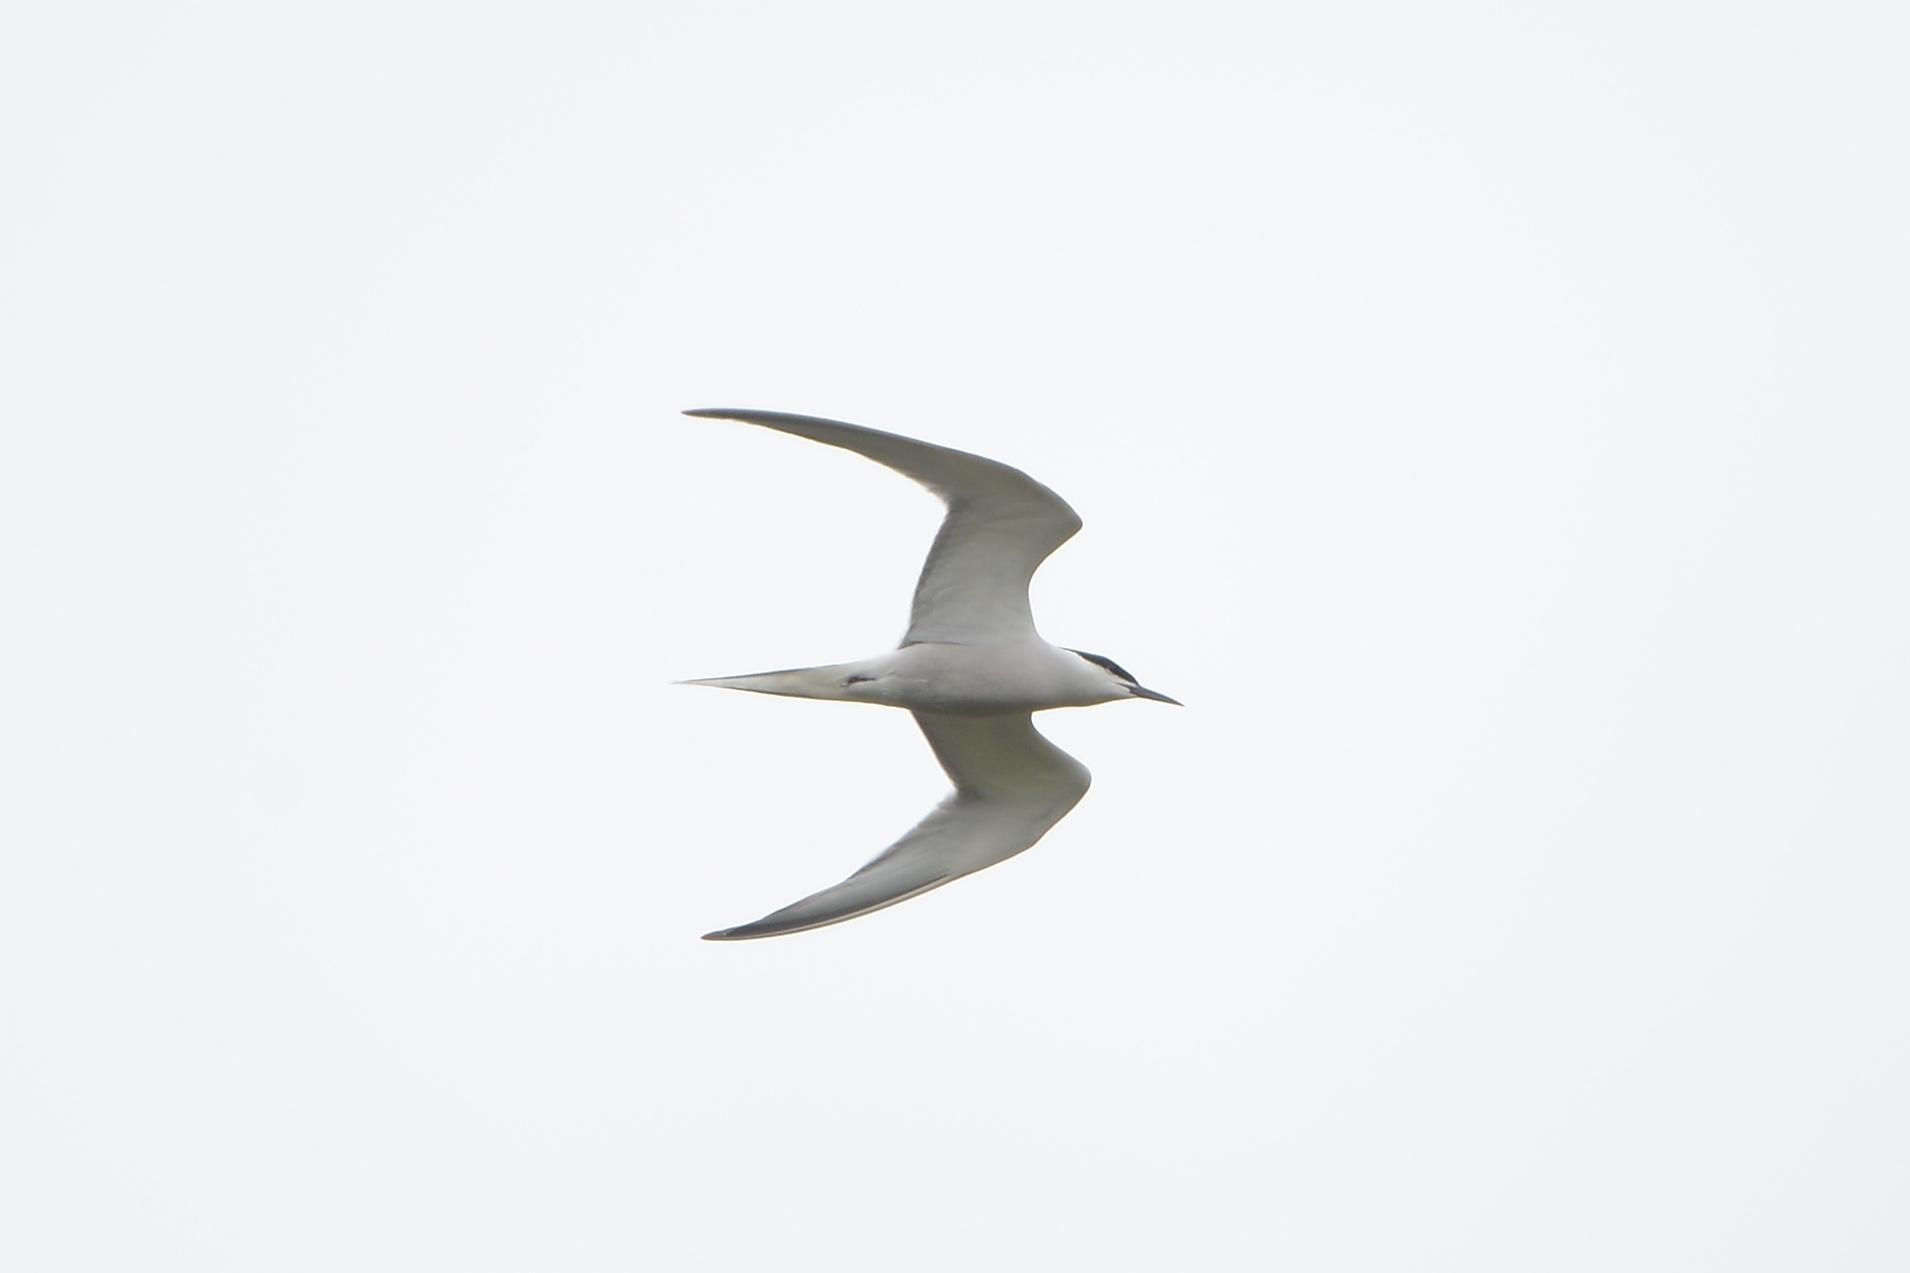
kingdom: Animalia
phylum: Chordata
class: Aves
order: Charadriiformes
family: Laridae
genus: Sterna
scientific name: Sterna hirundo
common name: Common tern
